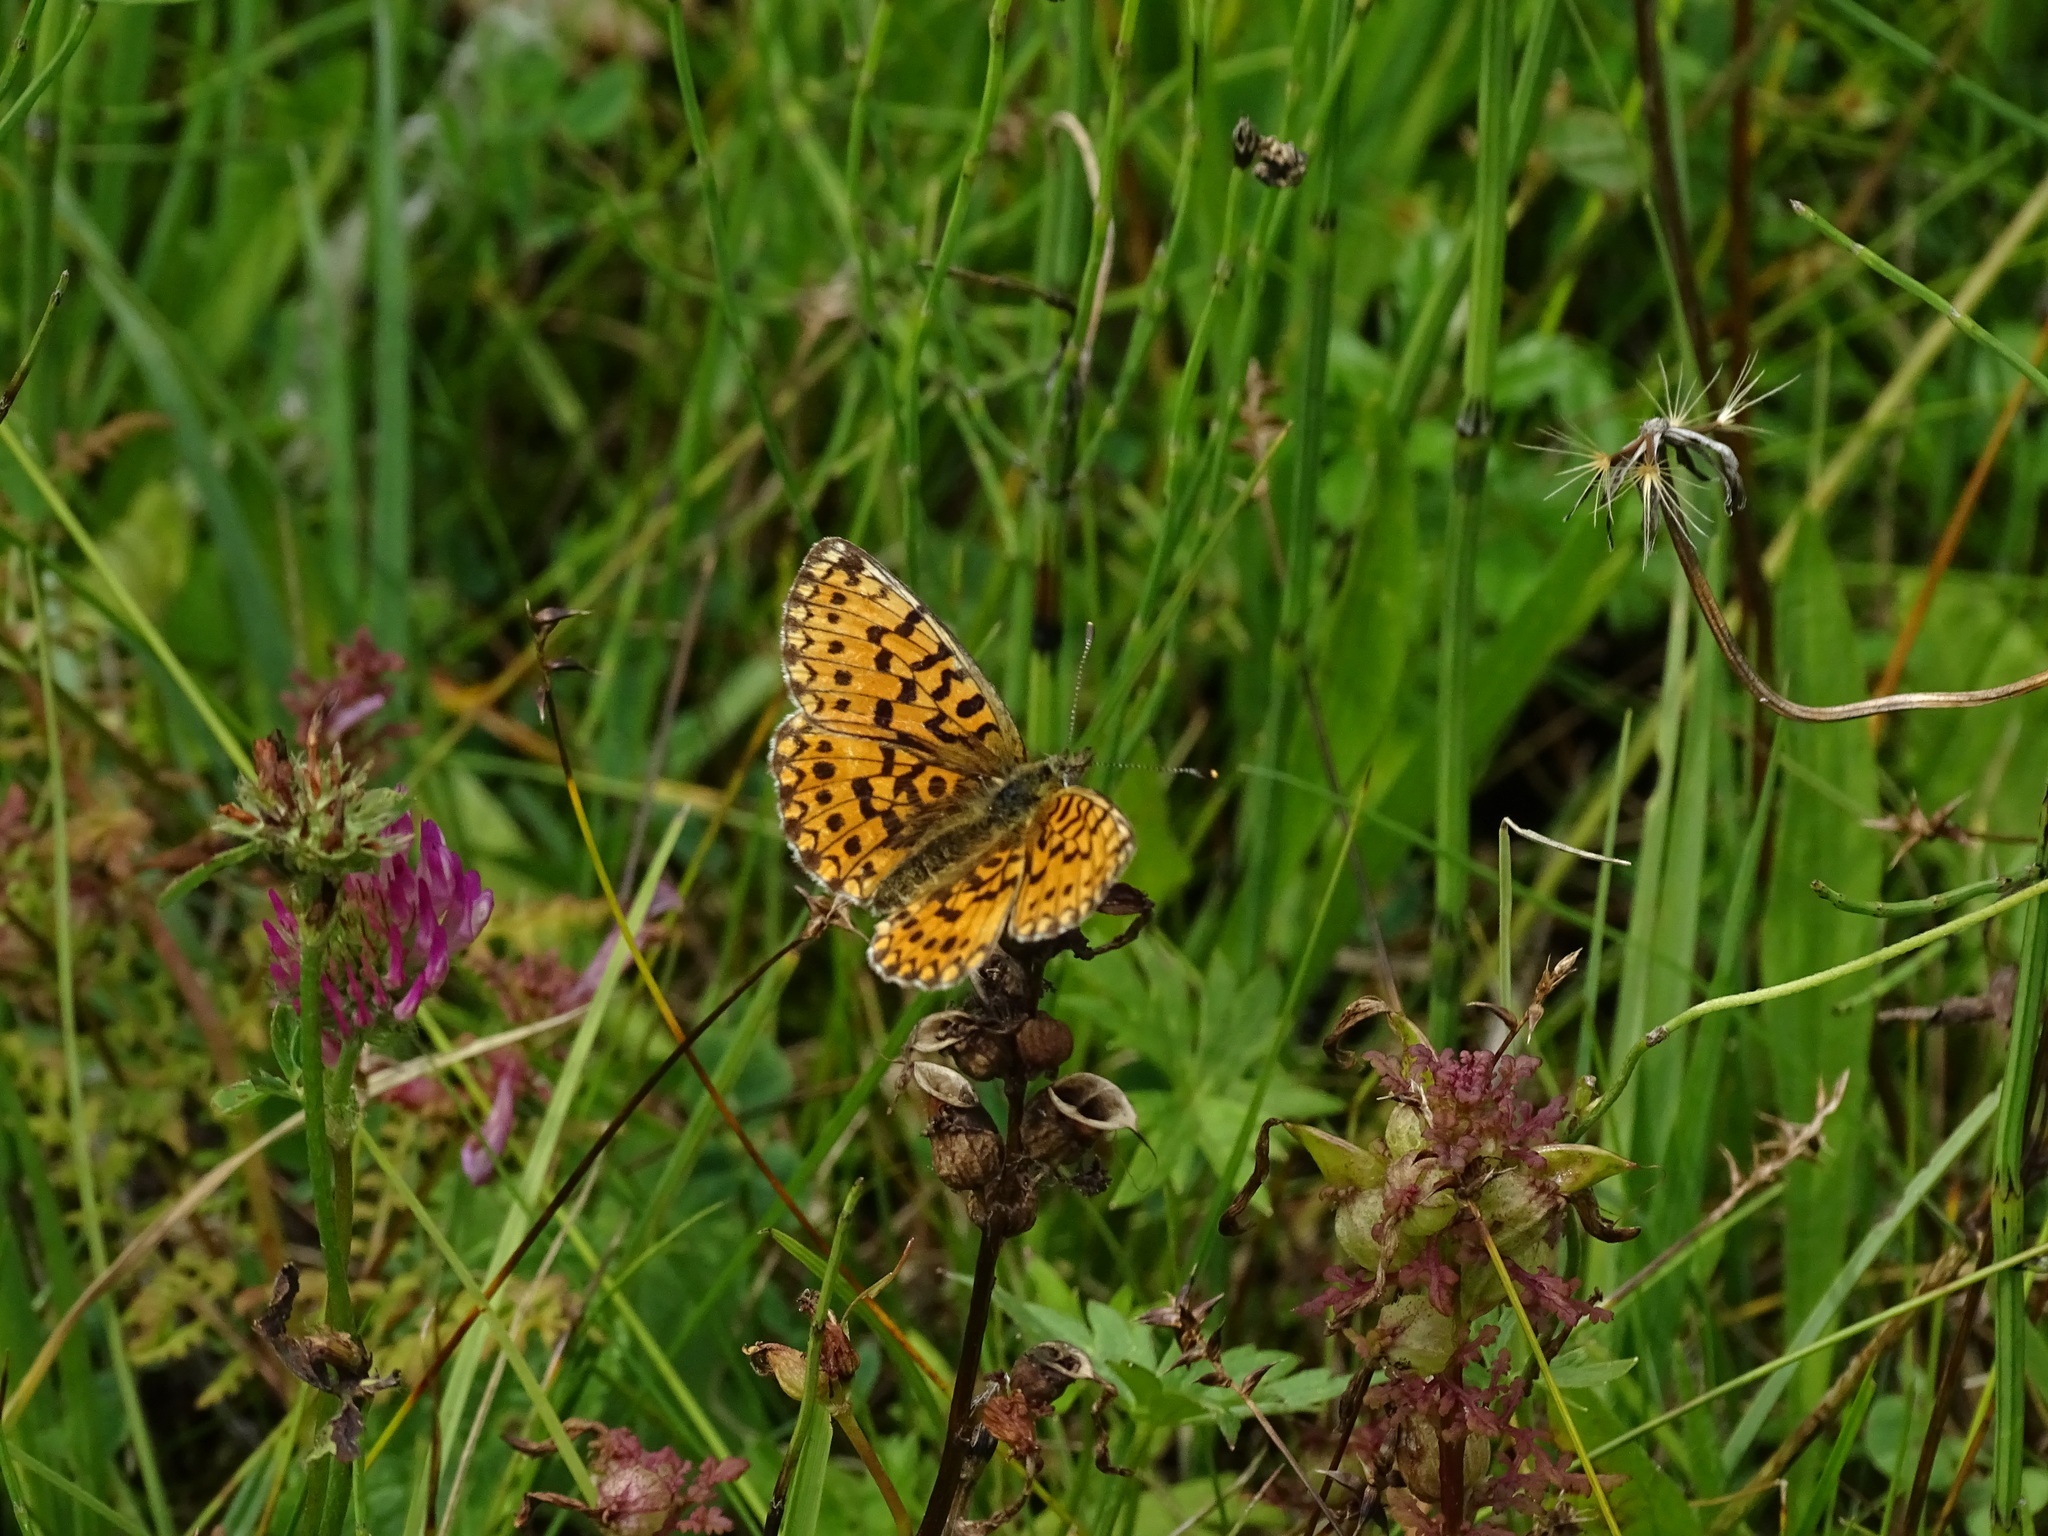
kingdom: Animalia
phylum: Arthropoda
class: Insecta
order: Lepidoptera
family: Nymphalidae
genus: Boloria
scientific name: Boloria selene
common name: Small pearl-bordered fritillary
